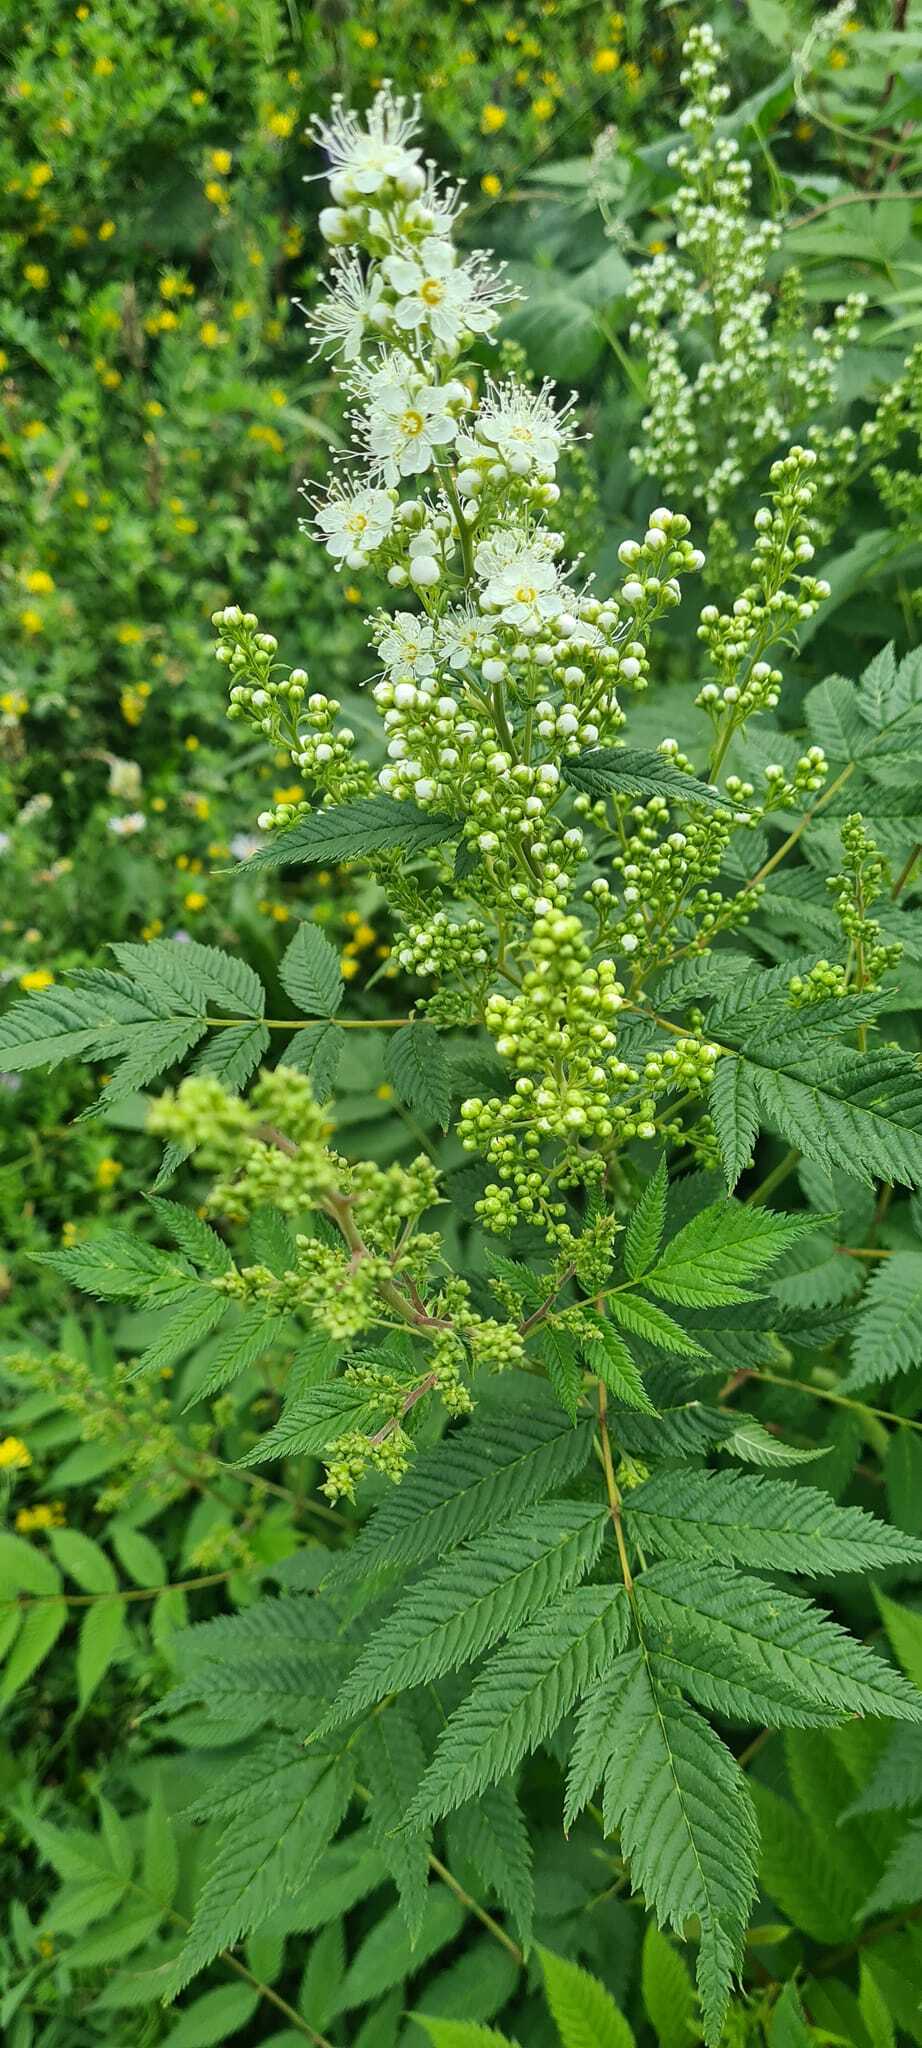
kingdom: Plantae
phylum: Tracheophyta
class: Magnoliopsida
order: Rosales
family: Rosaceae
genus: Sorbaria
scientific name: Sorbaria sorbifolia
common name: False spiraea
